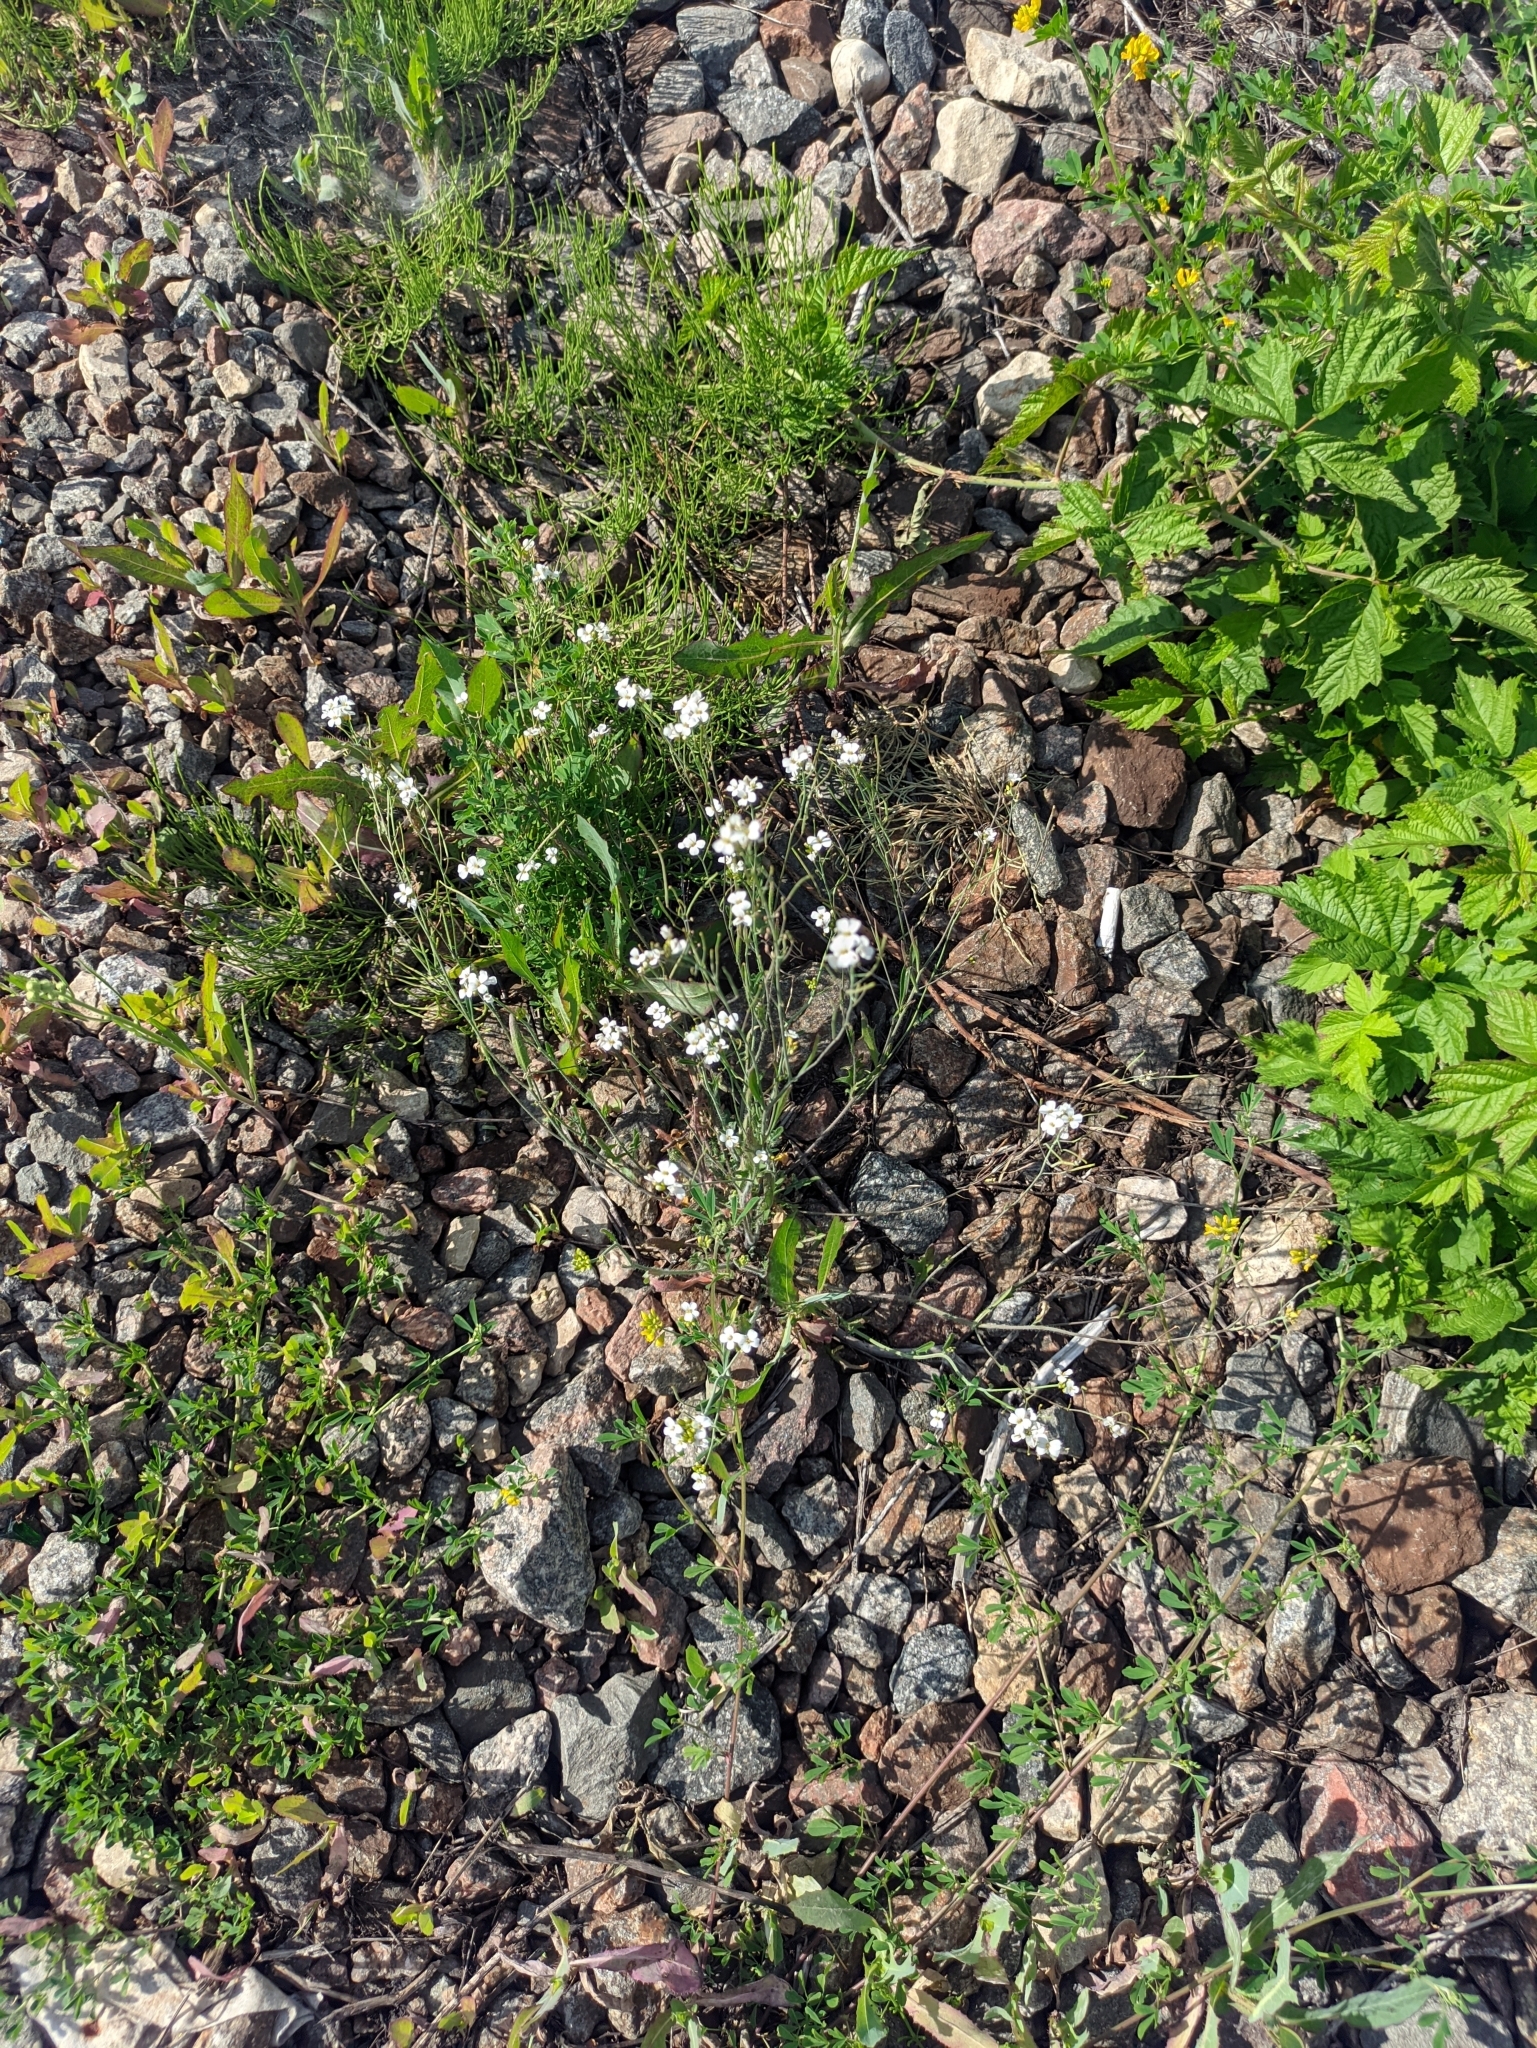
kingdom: Plantae
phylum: Tracheophyta
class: Magnoliopsida
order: Brassicales
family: Brassicaceae
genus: Arabidopsis
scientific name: Arabidopsis arenosa
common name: Sand rock-cress
